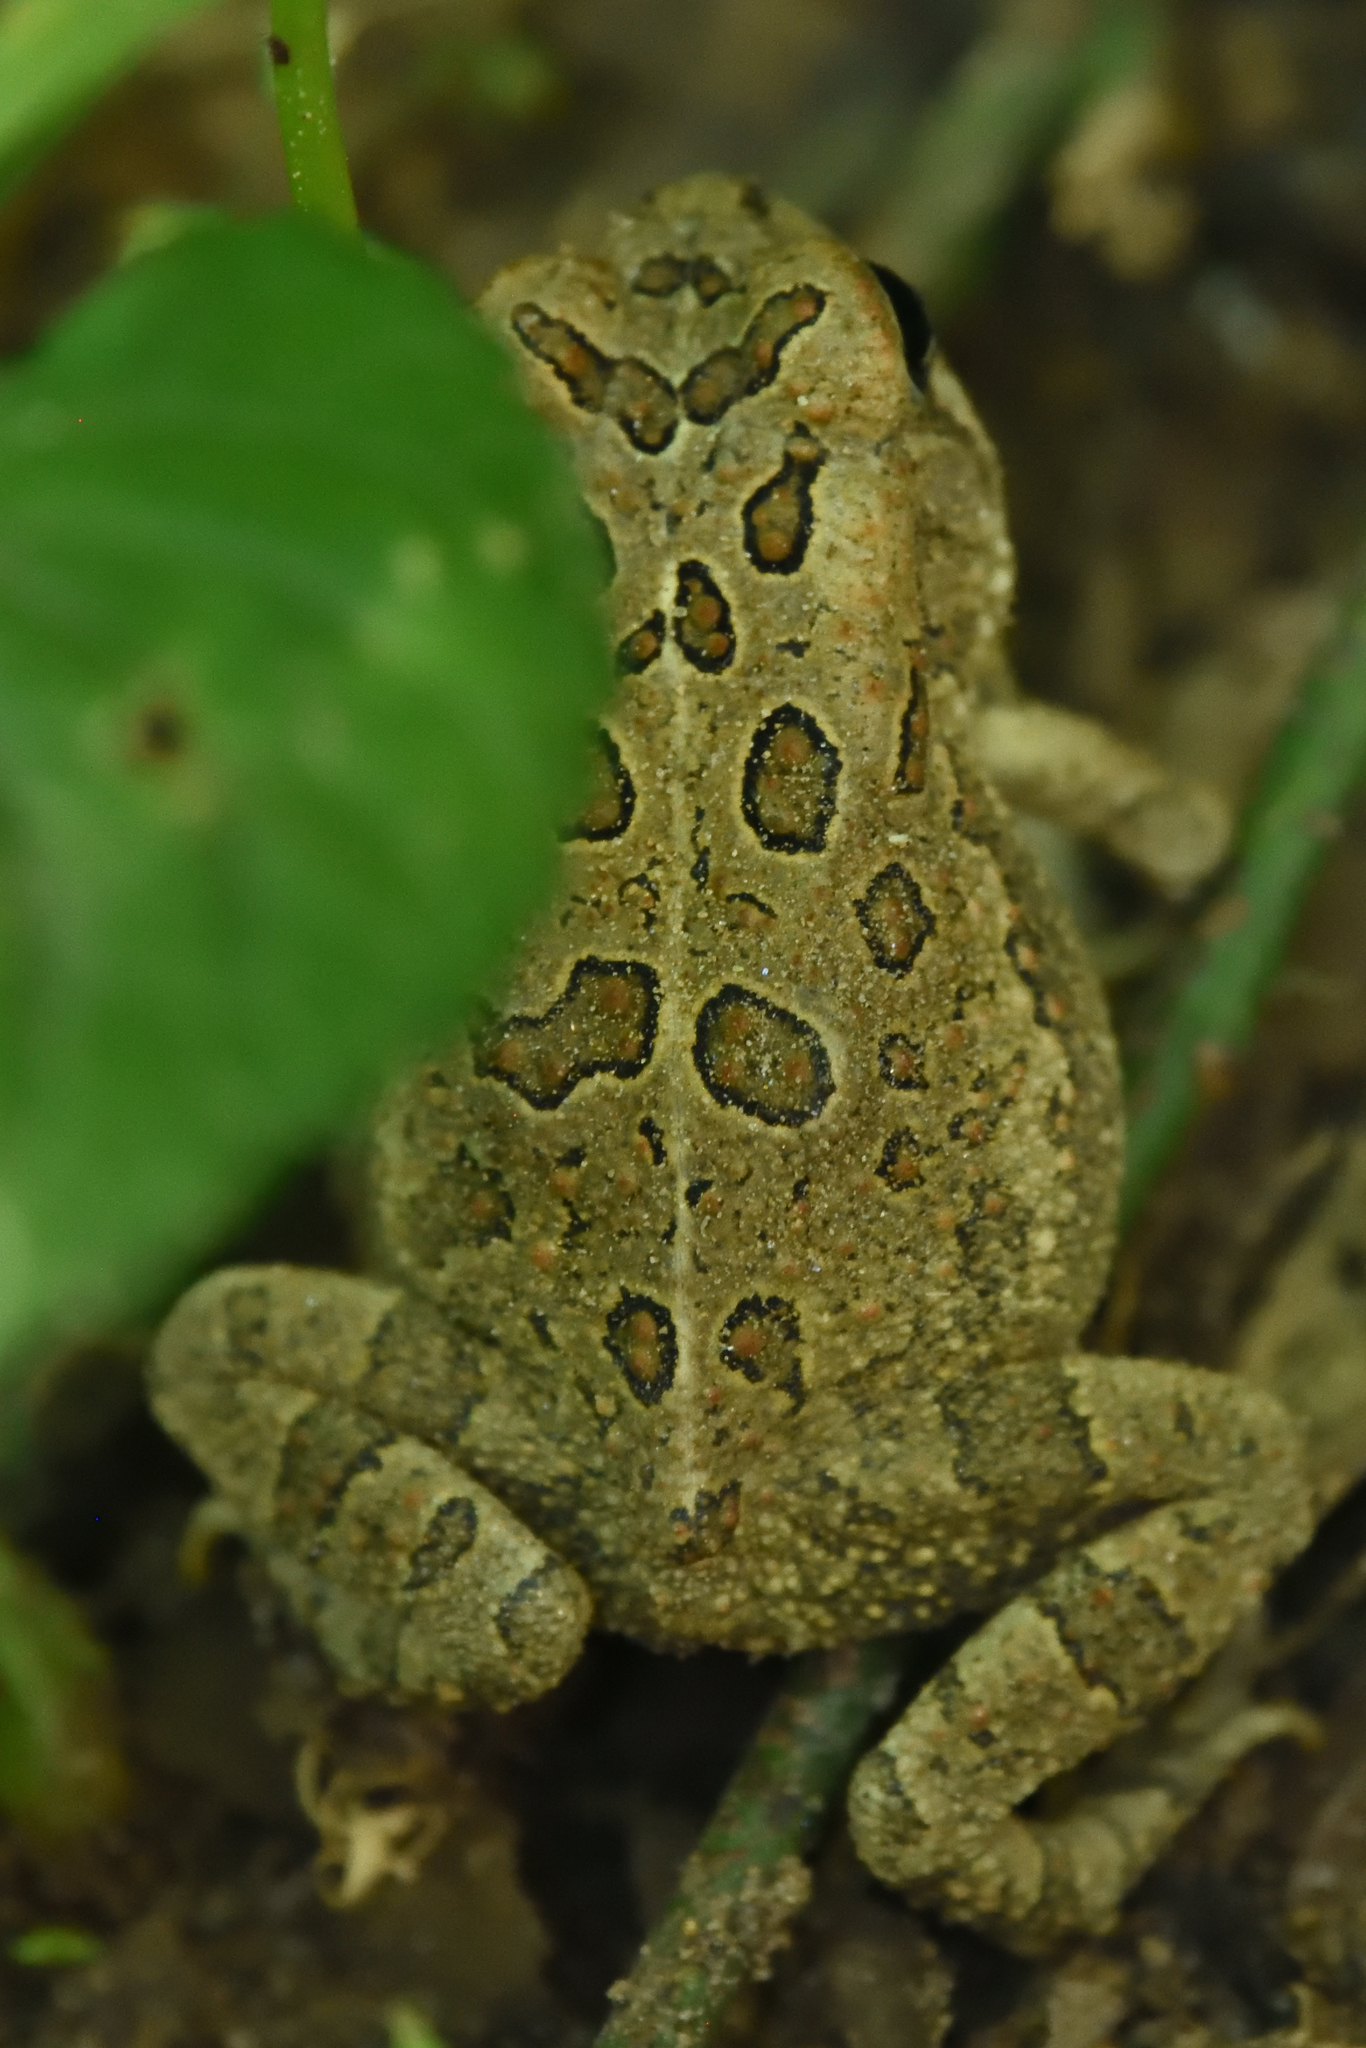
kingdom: Animalia
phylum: Chordata
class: Amphibia
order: Anura
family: Bufonidae
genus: Anaxyrus
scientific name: Anaxyrus fowleri
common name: Fowler's toad
